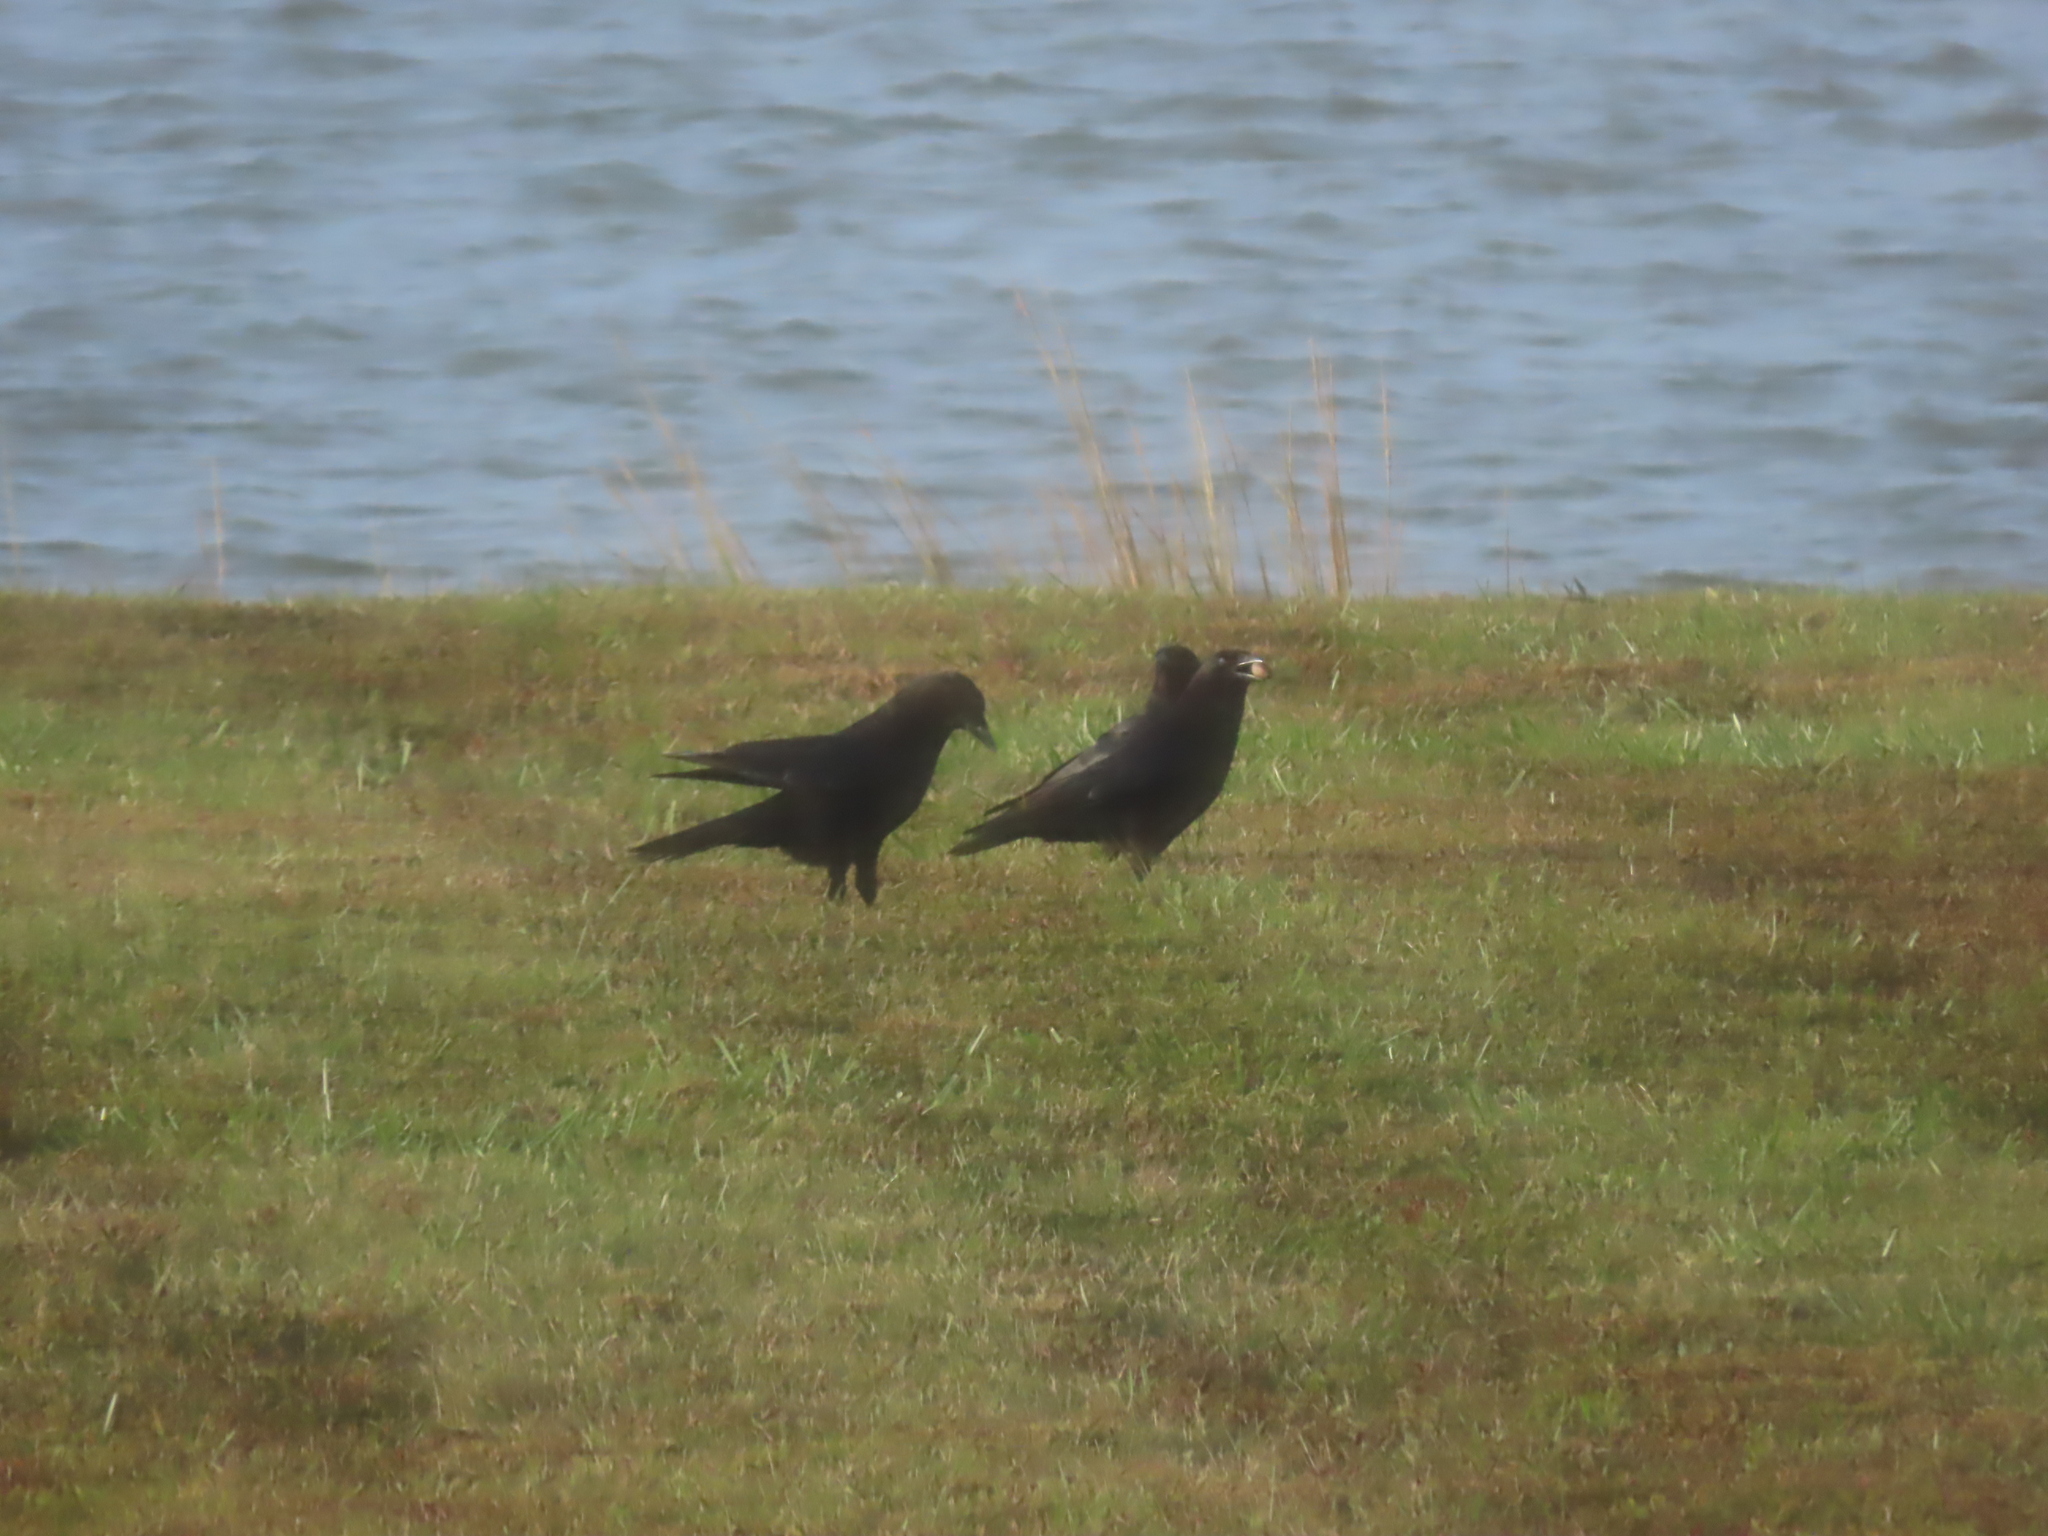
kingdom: Animalia
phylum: Chordata
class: Aves
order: Passeriformes
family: Corvidae
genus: Corvus
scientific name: Corvus brachyrhynchos
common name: American crow
